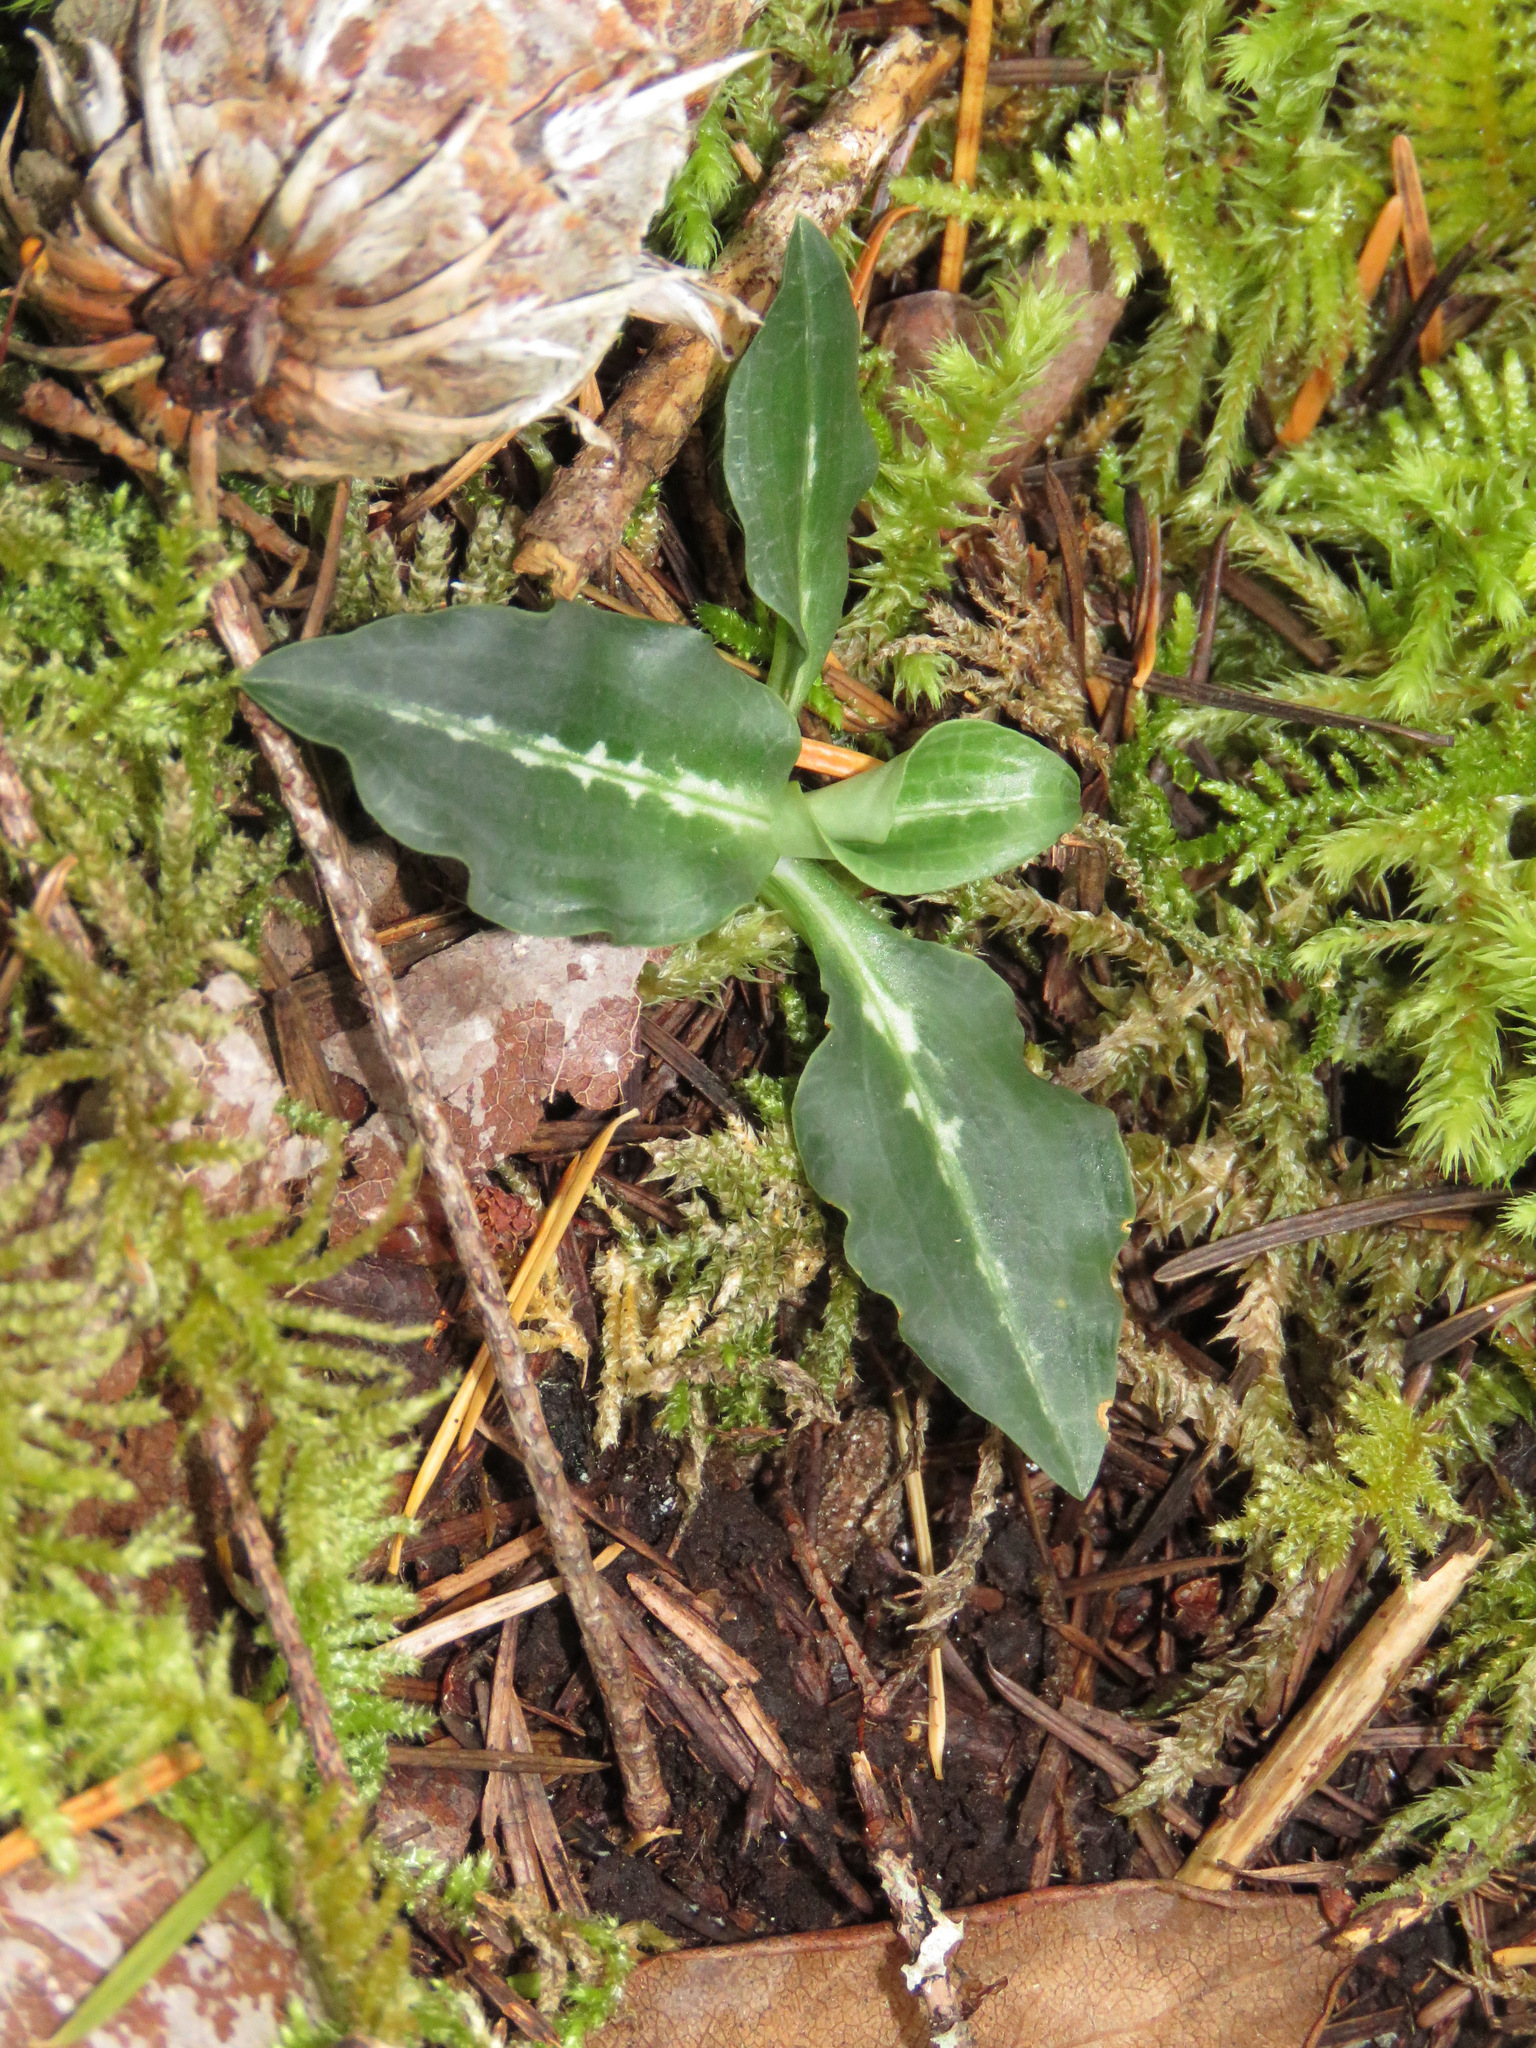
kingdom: Plantae
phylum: Tracheophyta
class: Liliopsida
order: Asparagales
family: Orchidaceae
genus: Goodyera
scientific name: Goodyera oblongifolia
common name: Giant rattlesnake-plantain
